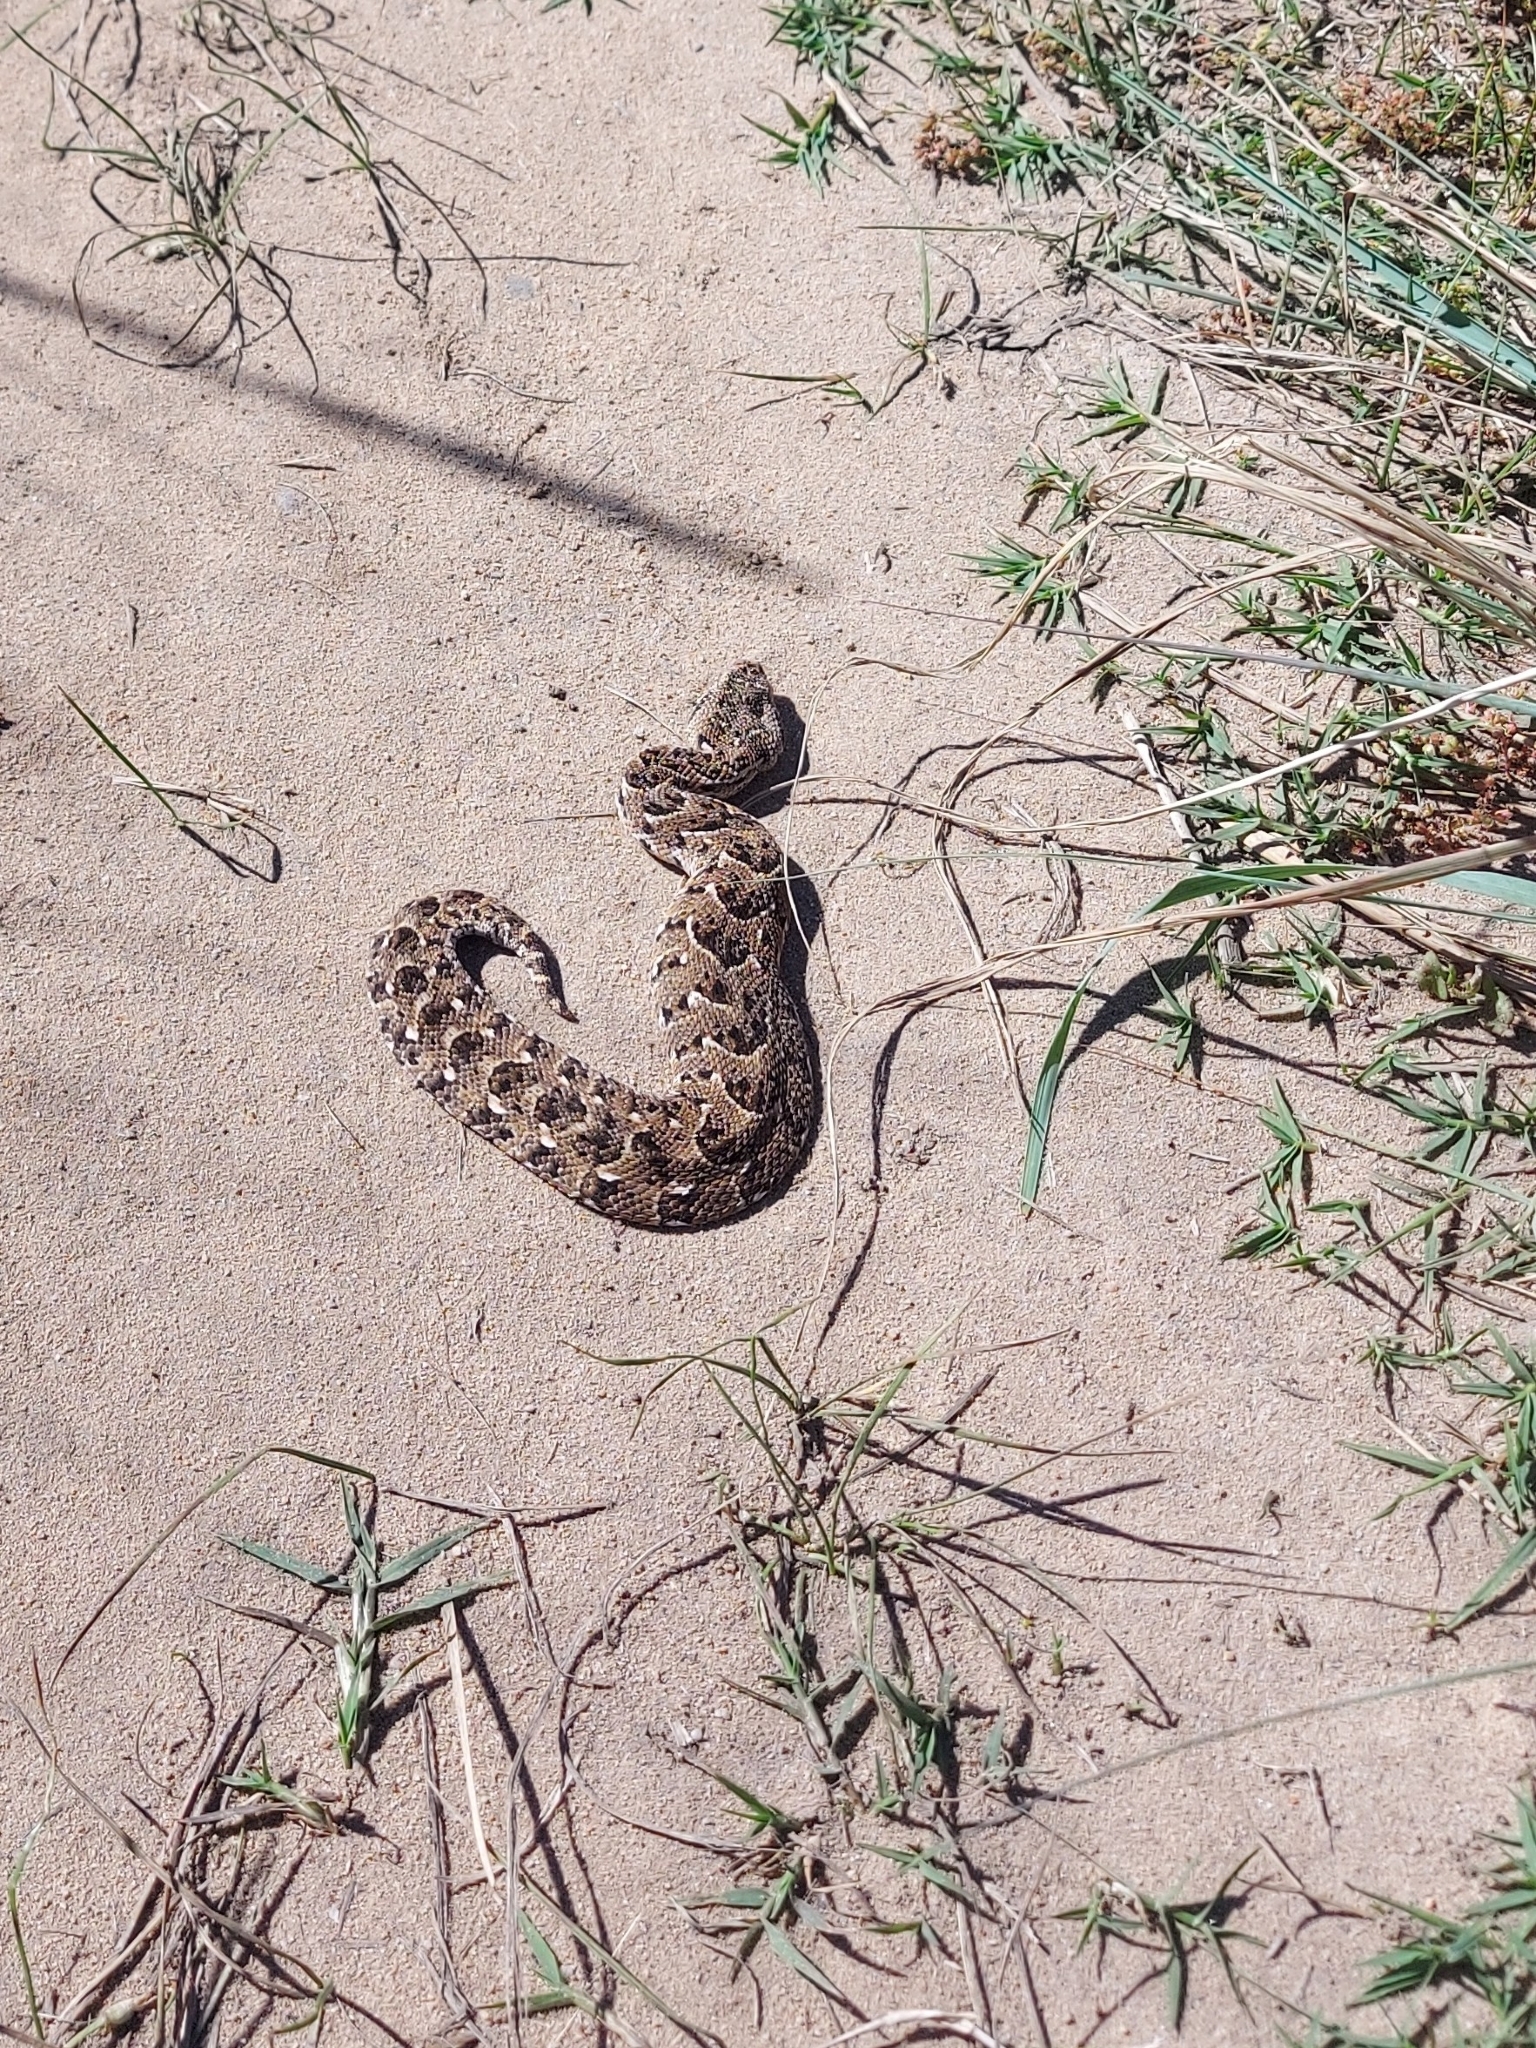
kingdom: Animalia
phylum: Chordata
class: Squamata
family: Viperidae
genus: Bitis
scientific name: Bitis arietans
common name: Puff adder
